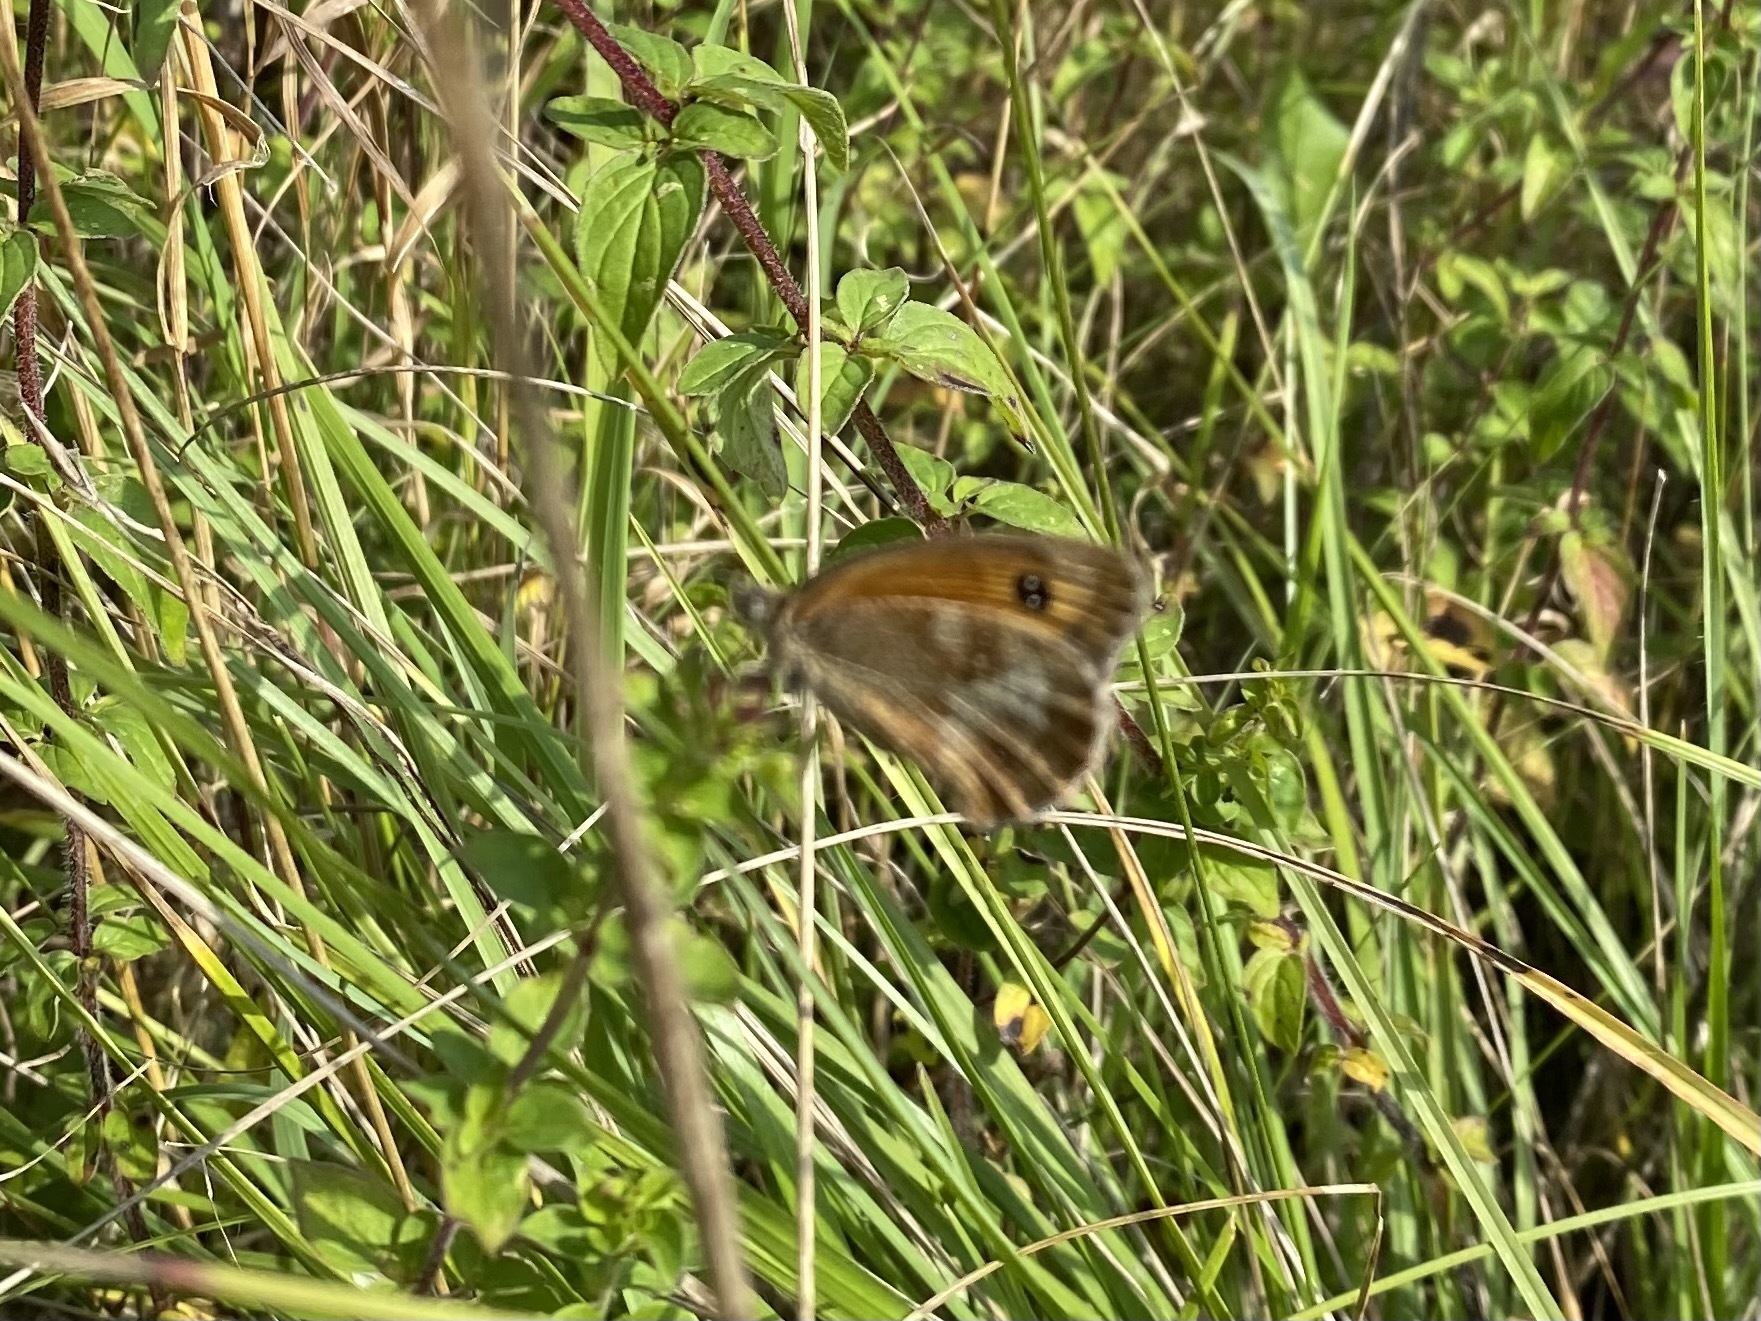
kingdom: Animalia
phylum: Arthropoda
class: Insecta
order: Lepidoptera
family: Nymphalidae
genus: Pyronia
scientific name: Pyronia tithonus
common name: Gatekeeper
